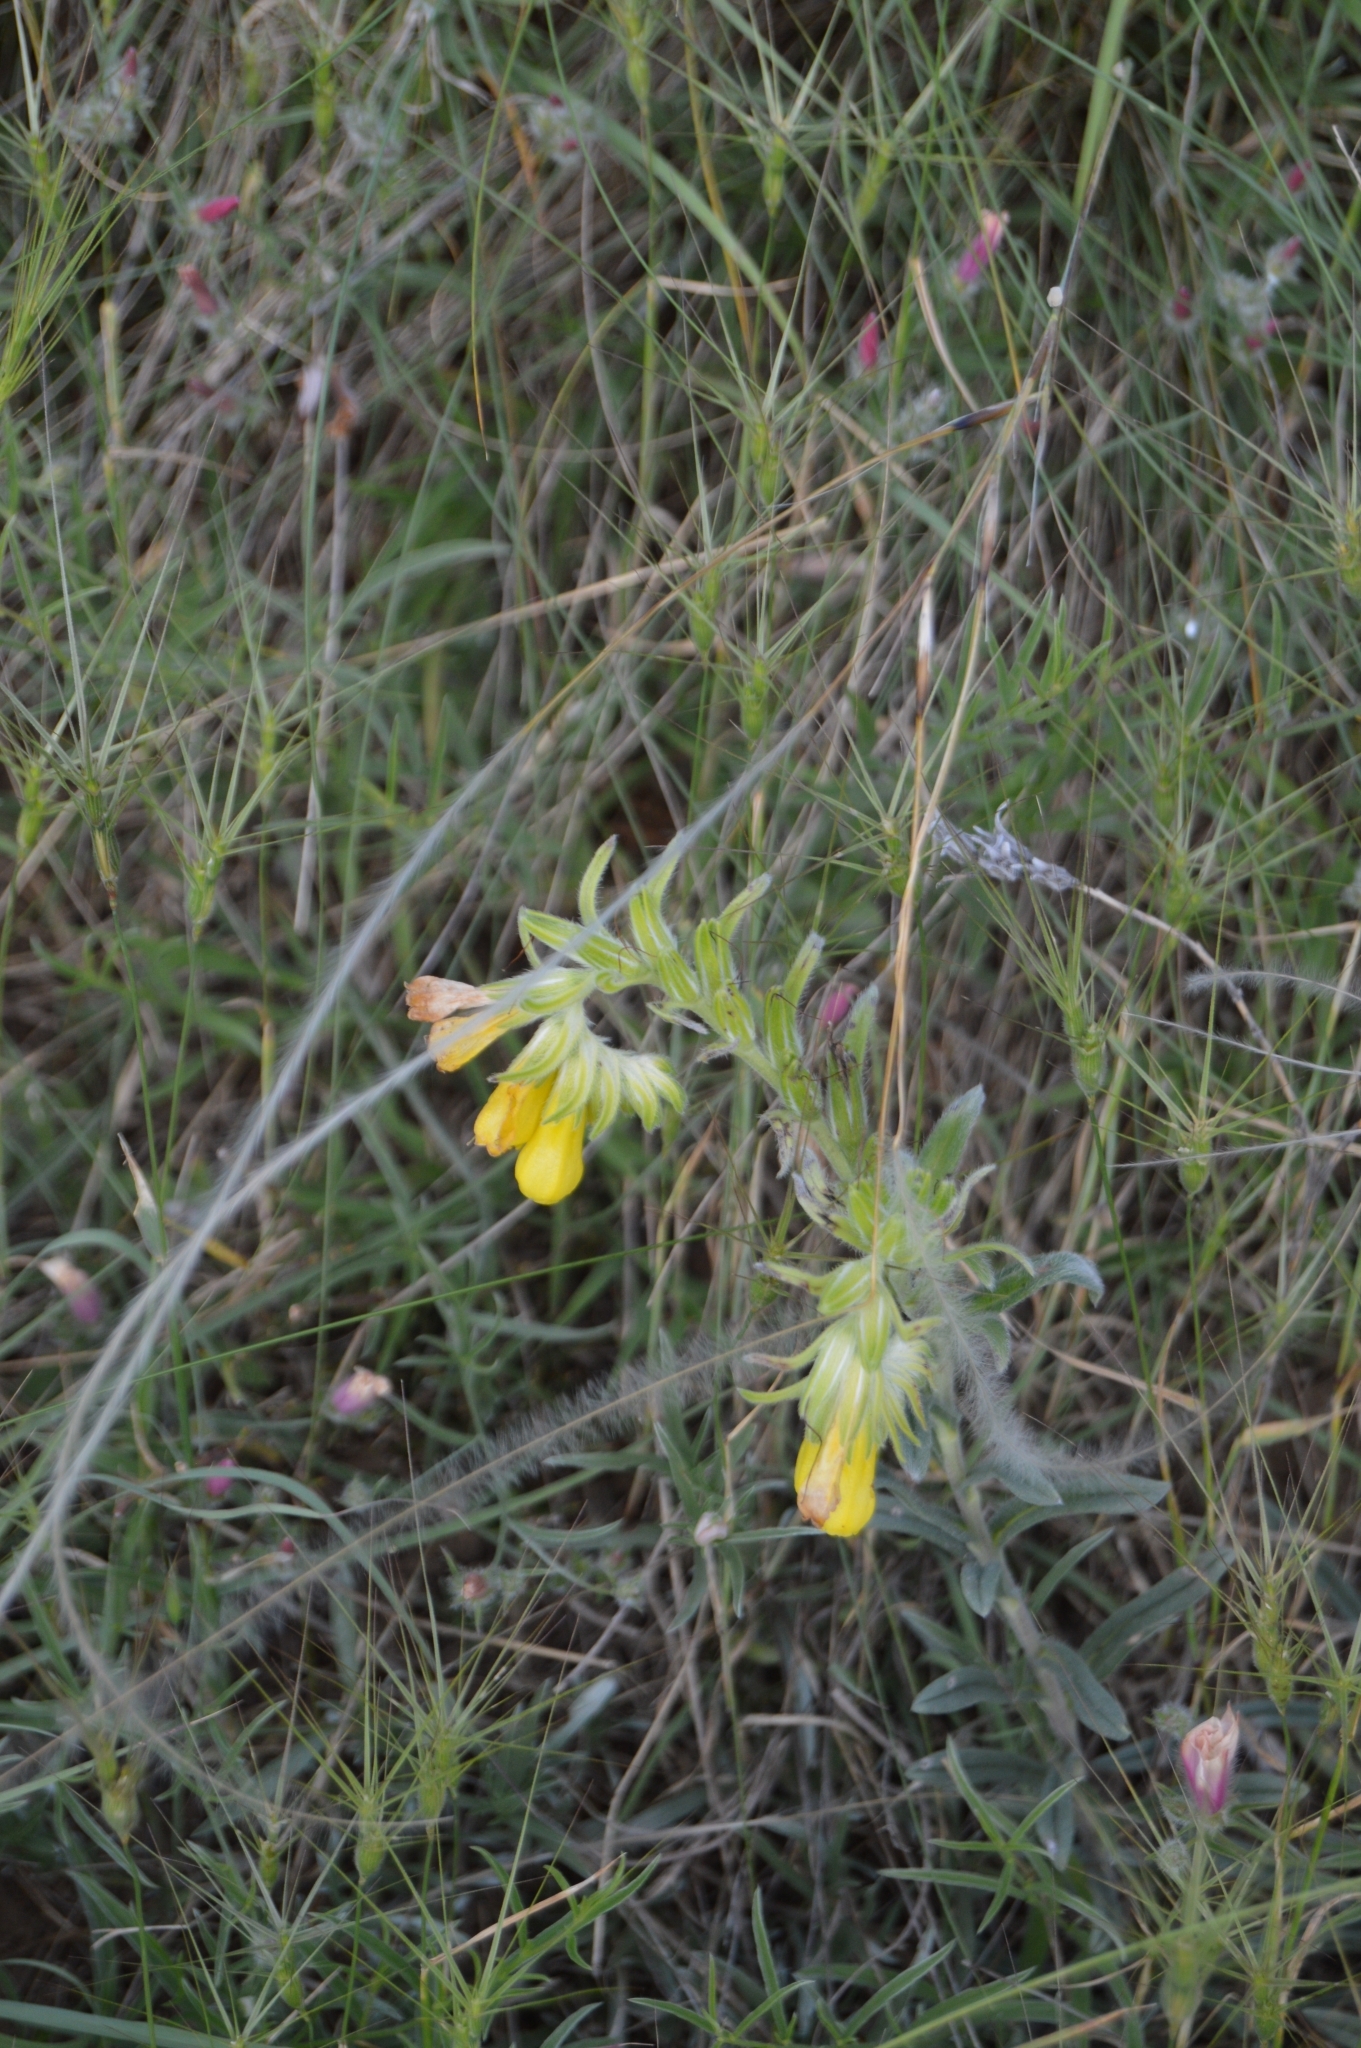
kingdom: Plantae
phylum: Tracheophyta
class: Magnoliopsida
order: Boraginales
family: Boraginaceae
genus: Onosma
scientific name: Onosma taurica
